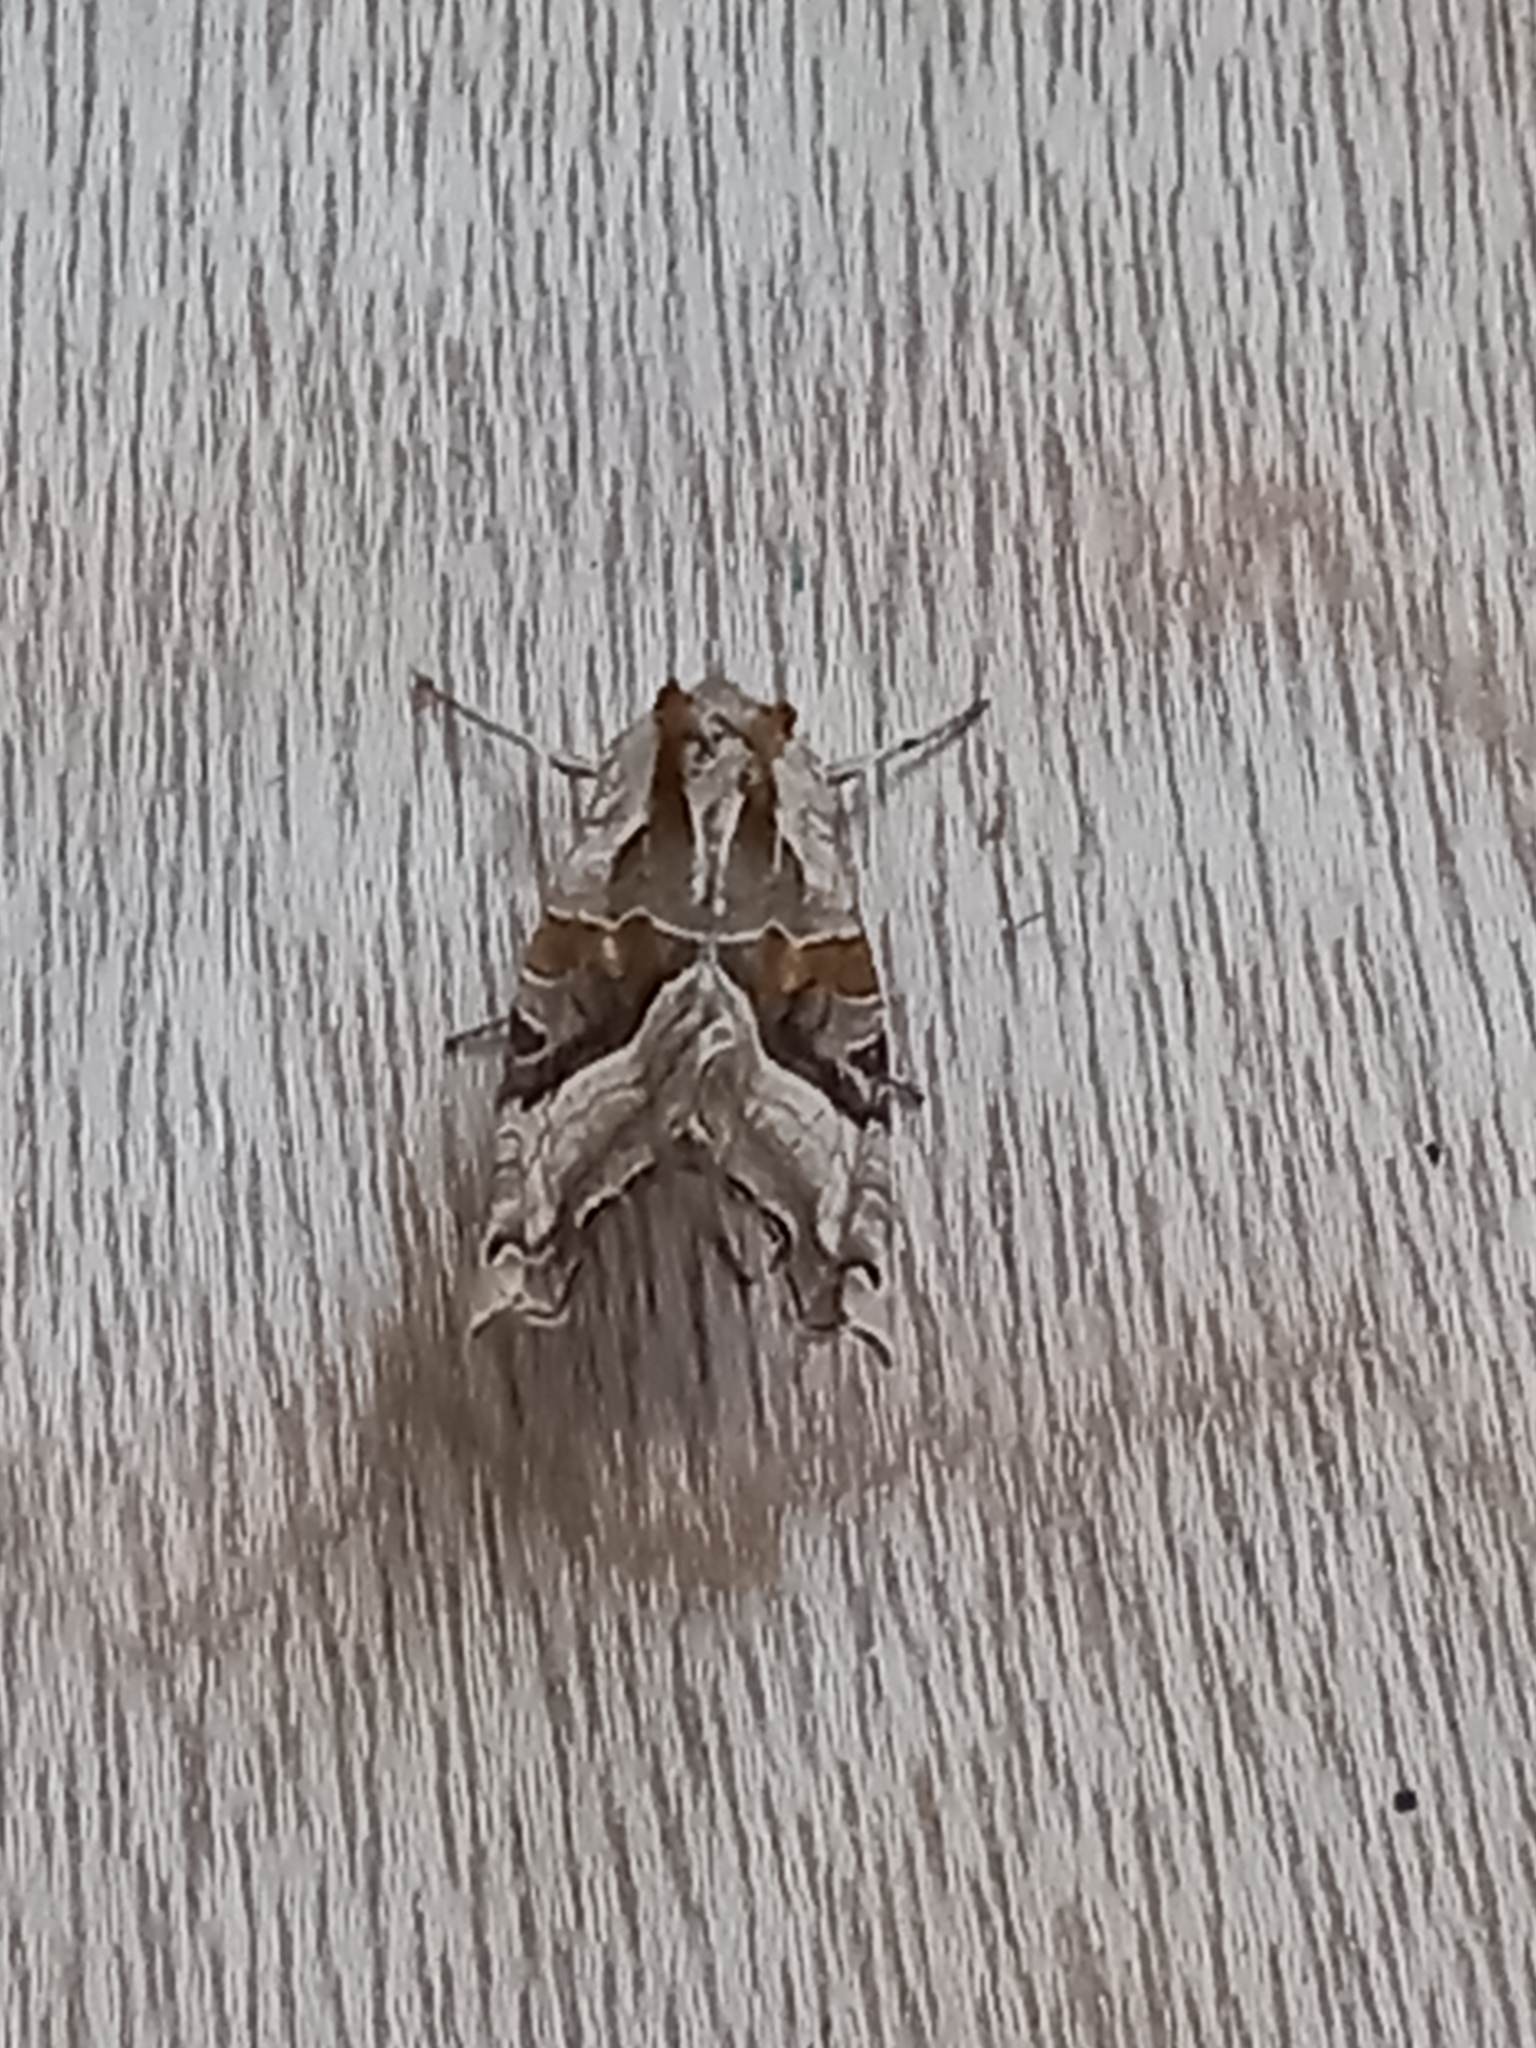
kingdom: Animalia
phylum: Arthropoda
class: Insecta
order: Lepidoptera
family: Noctuidae
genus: Phlogophora
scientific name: Phlogophora meticulosa
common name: Angle shades
